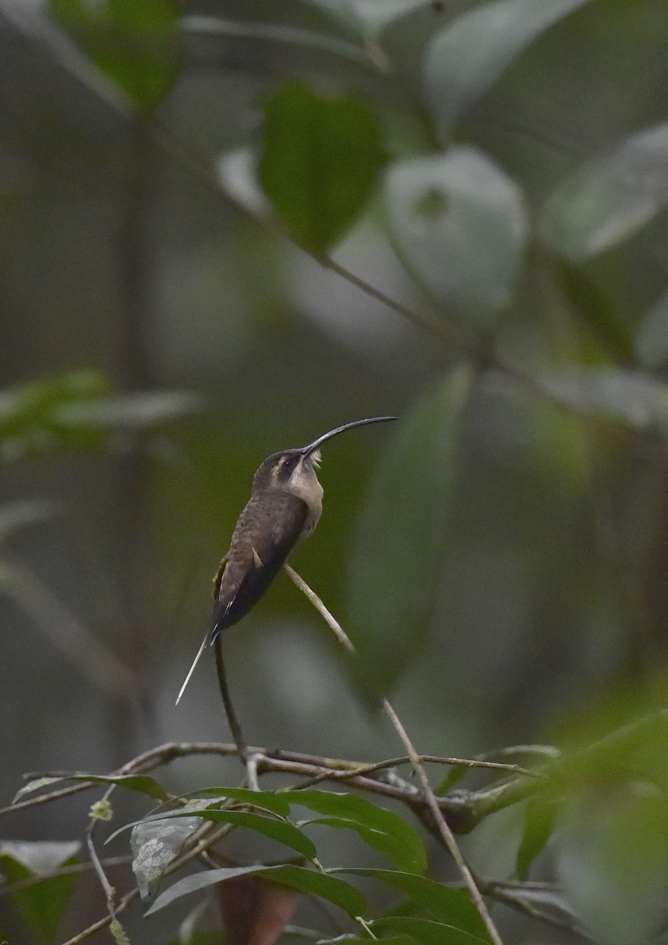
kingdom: Animalia
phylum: Chordata
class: Aves
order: Apodiformes
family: Trochilidae
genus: Phaethornis
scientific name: Phaethornis superciliosus
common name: Long-tailed hermit
